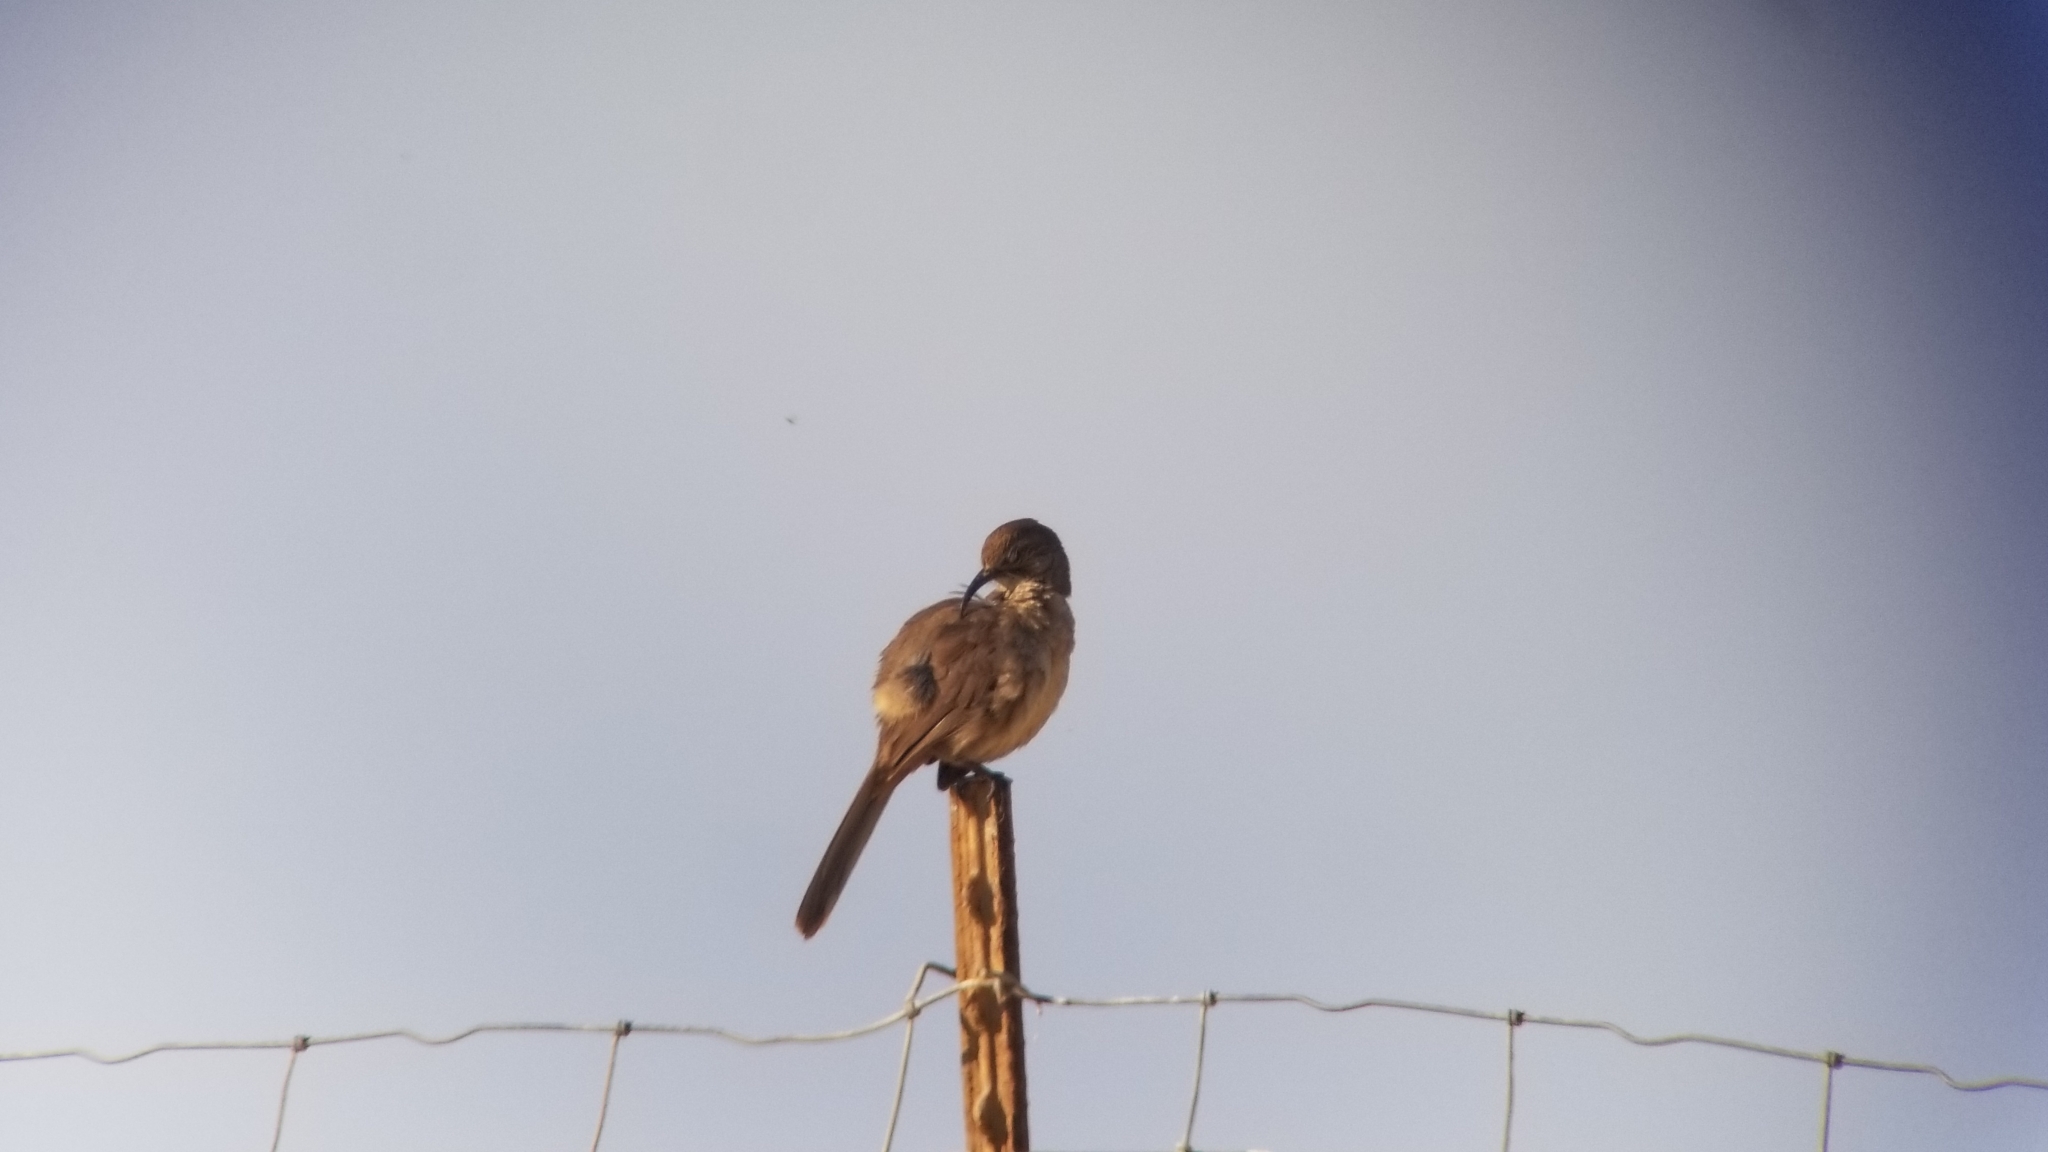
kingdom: Animalia
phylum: Chordata
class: Aves
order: Passeriformes
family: Mimidae
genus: Toxostoma
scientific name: Toxostoma redivivum
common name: California thrasher
